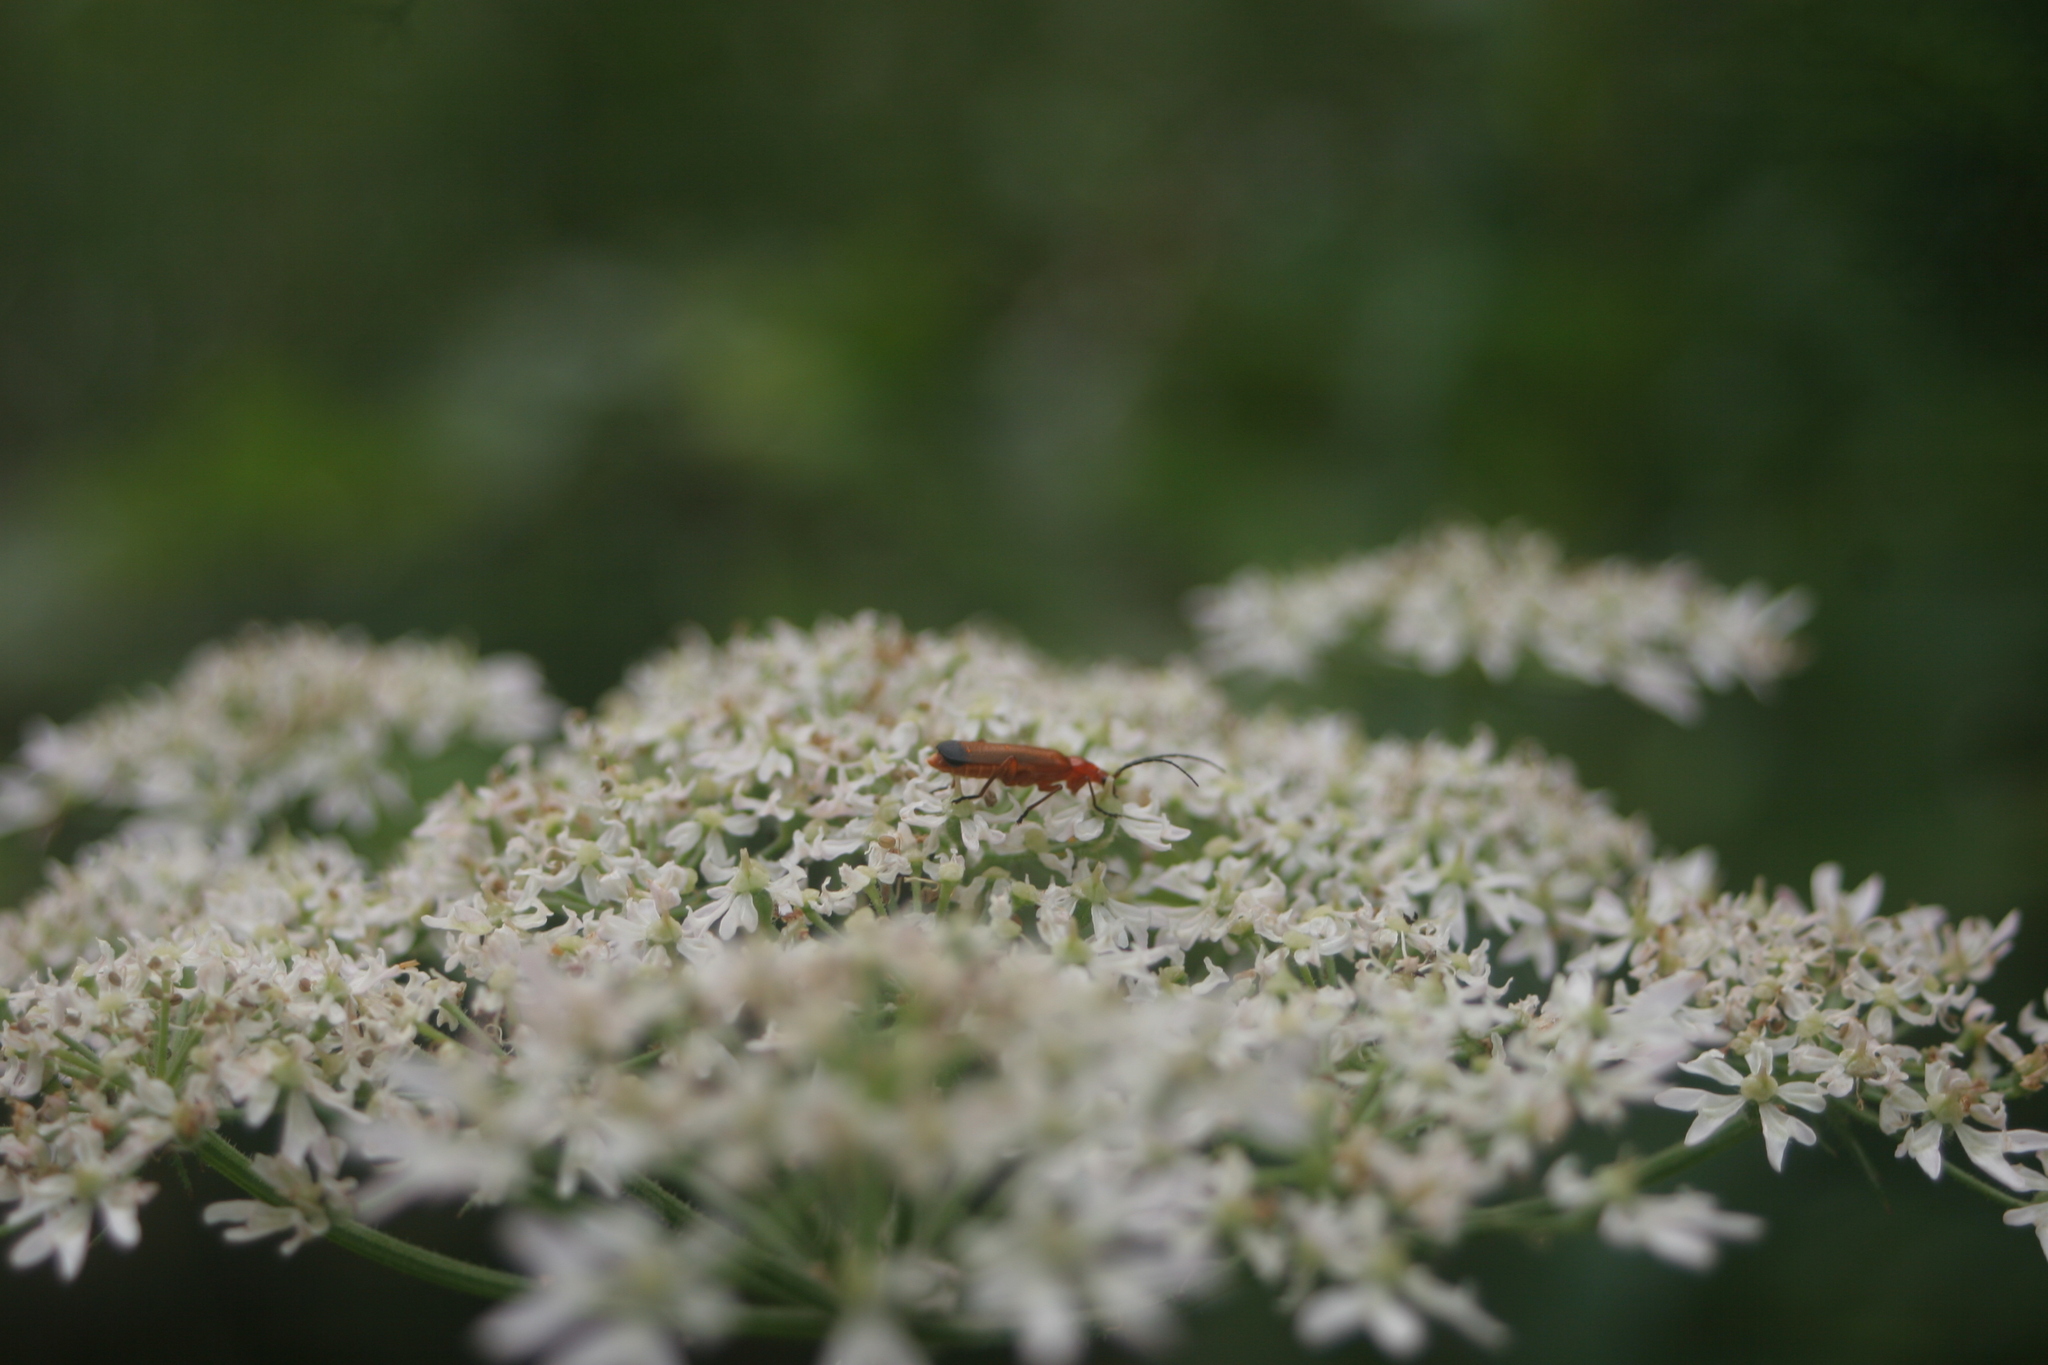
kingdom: Animalia
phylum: Arthropoda
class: Insecta
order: Coleoptera
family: Cantharidae
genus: Rhagonycha
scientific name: Rhagonycha fulva
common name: Common red soldier beetle
